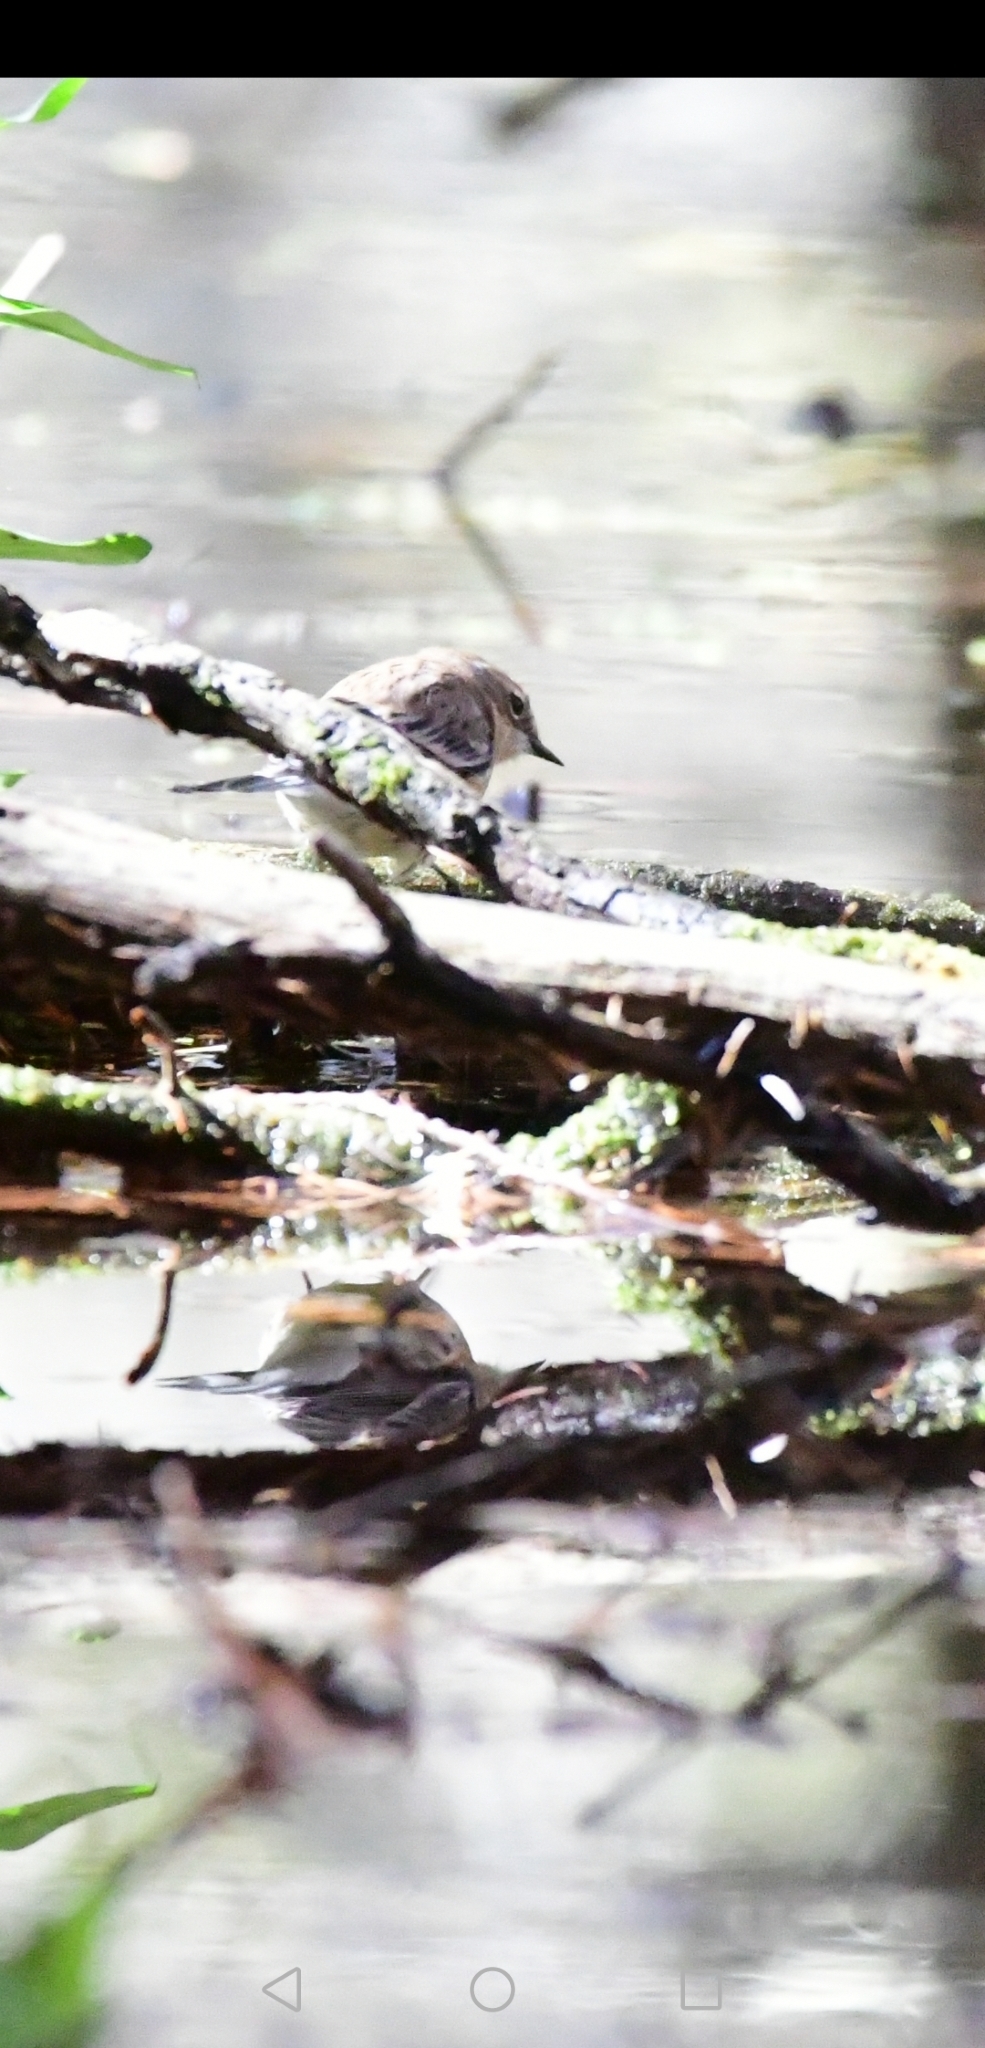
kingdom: Animalia
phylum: Chordata
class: Aves
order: Passeriformes
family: Parulidae
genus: Setophaga
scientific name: Setophaga coronata
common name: Myrtle warbler
